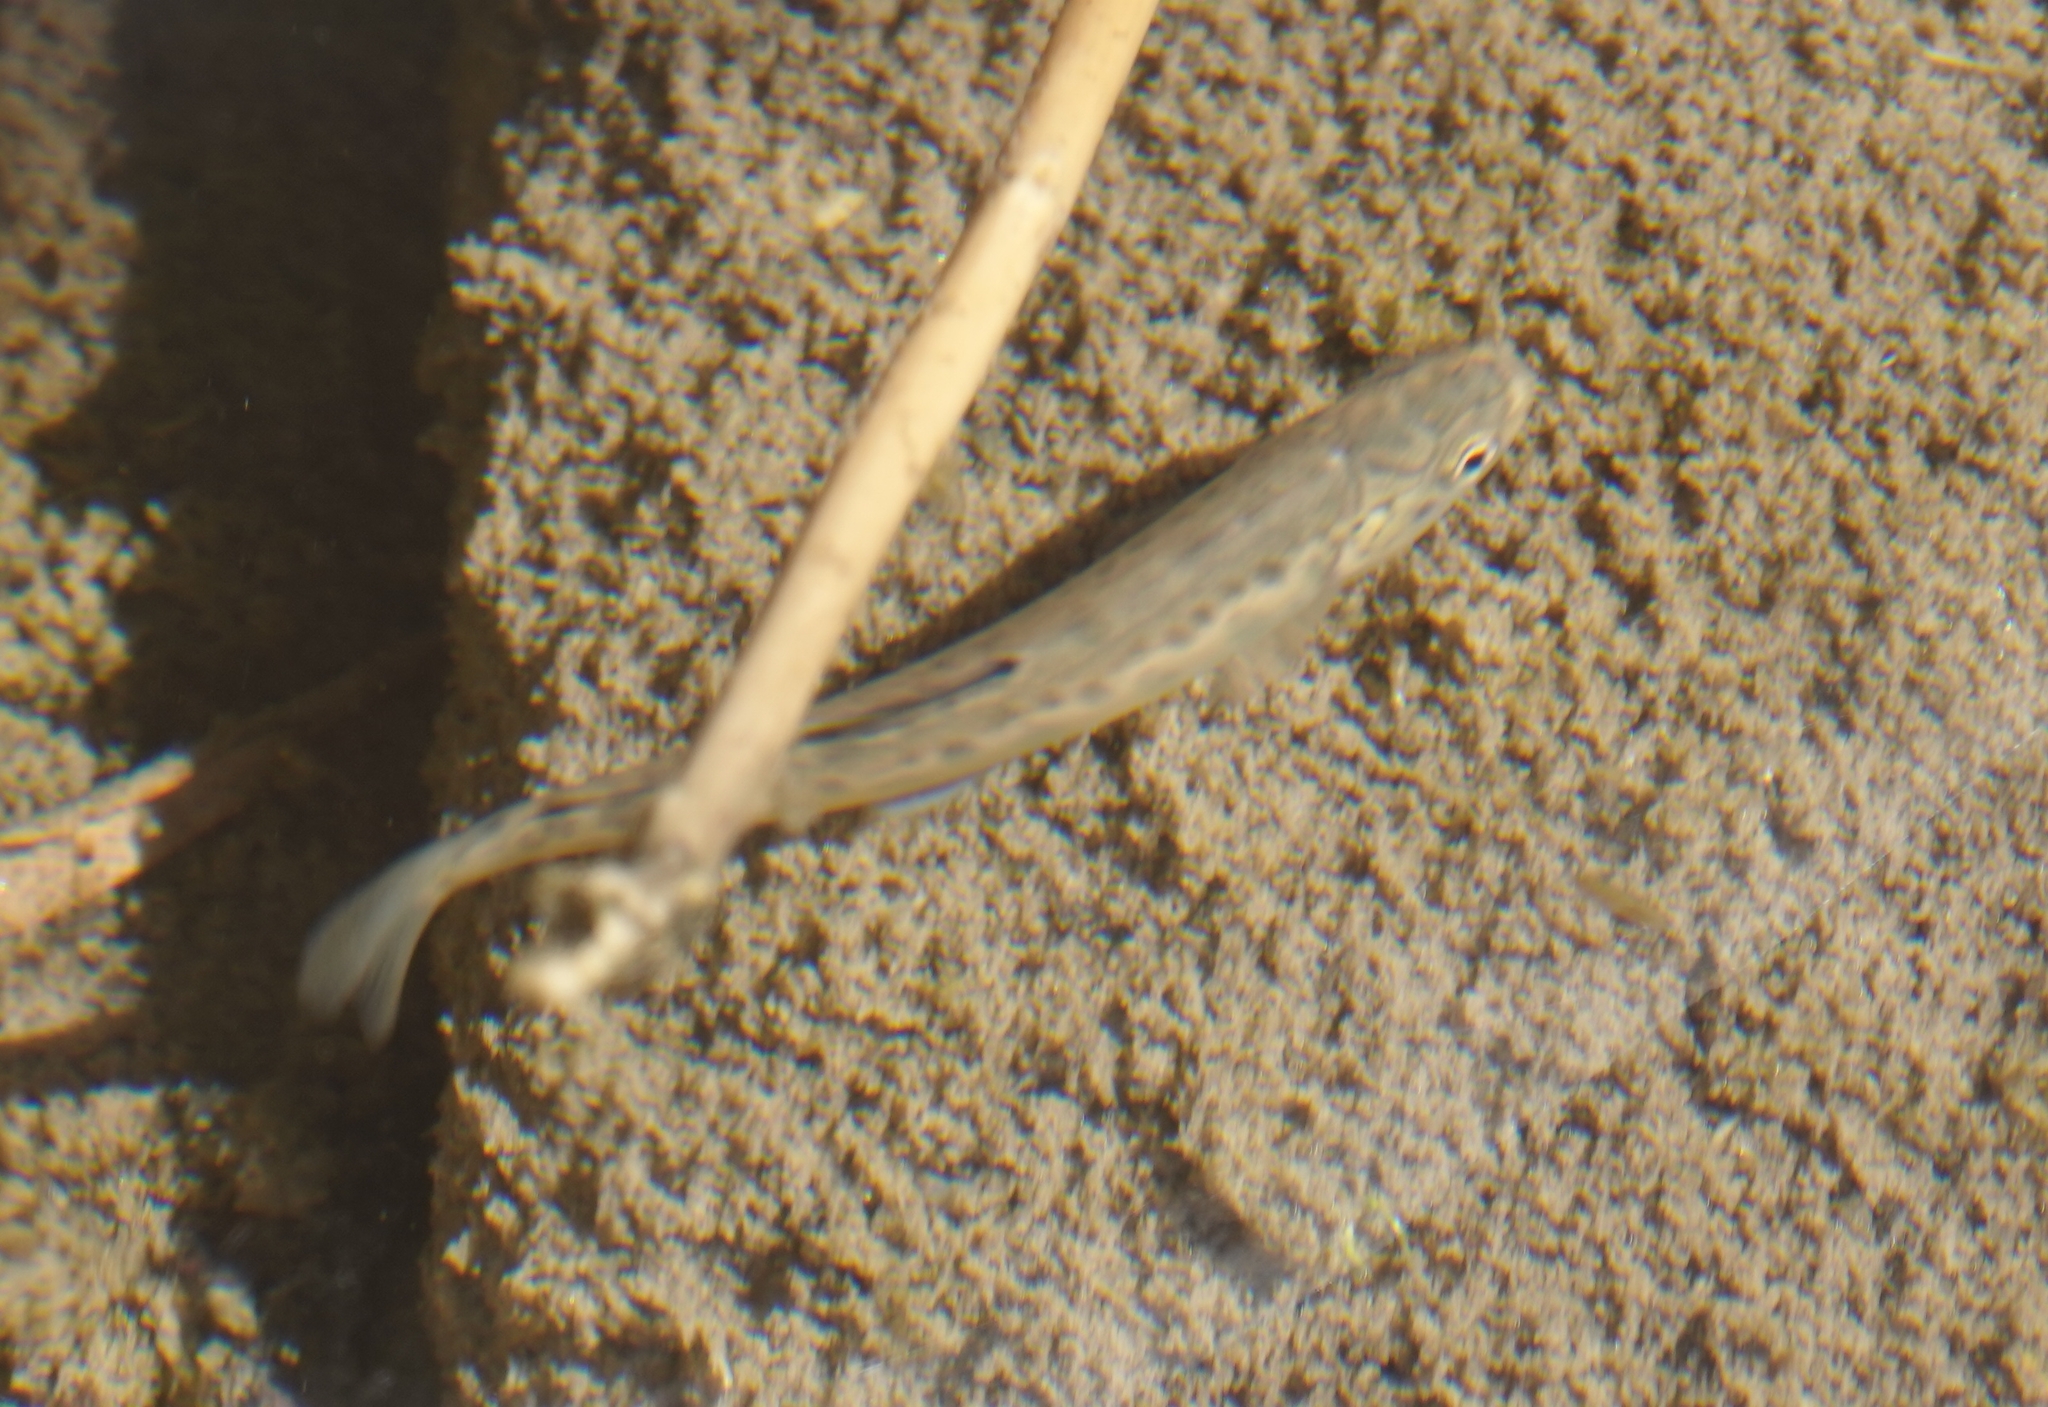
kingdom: Animalia
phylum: Chordata
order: Salmoniformes
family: Salmonidae
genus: Salmo
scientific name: Salmo trutta
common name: Brown trout
